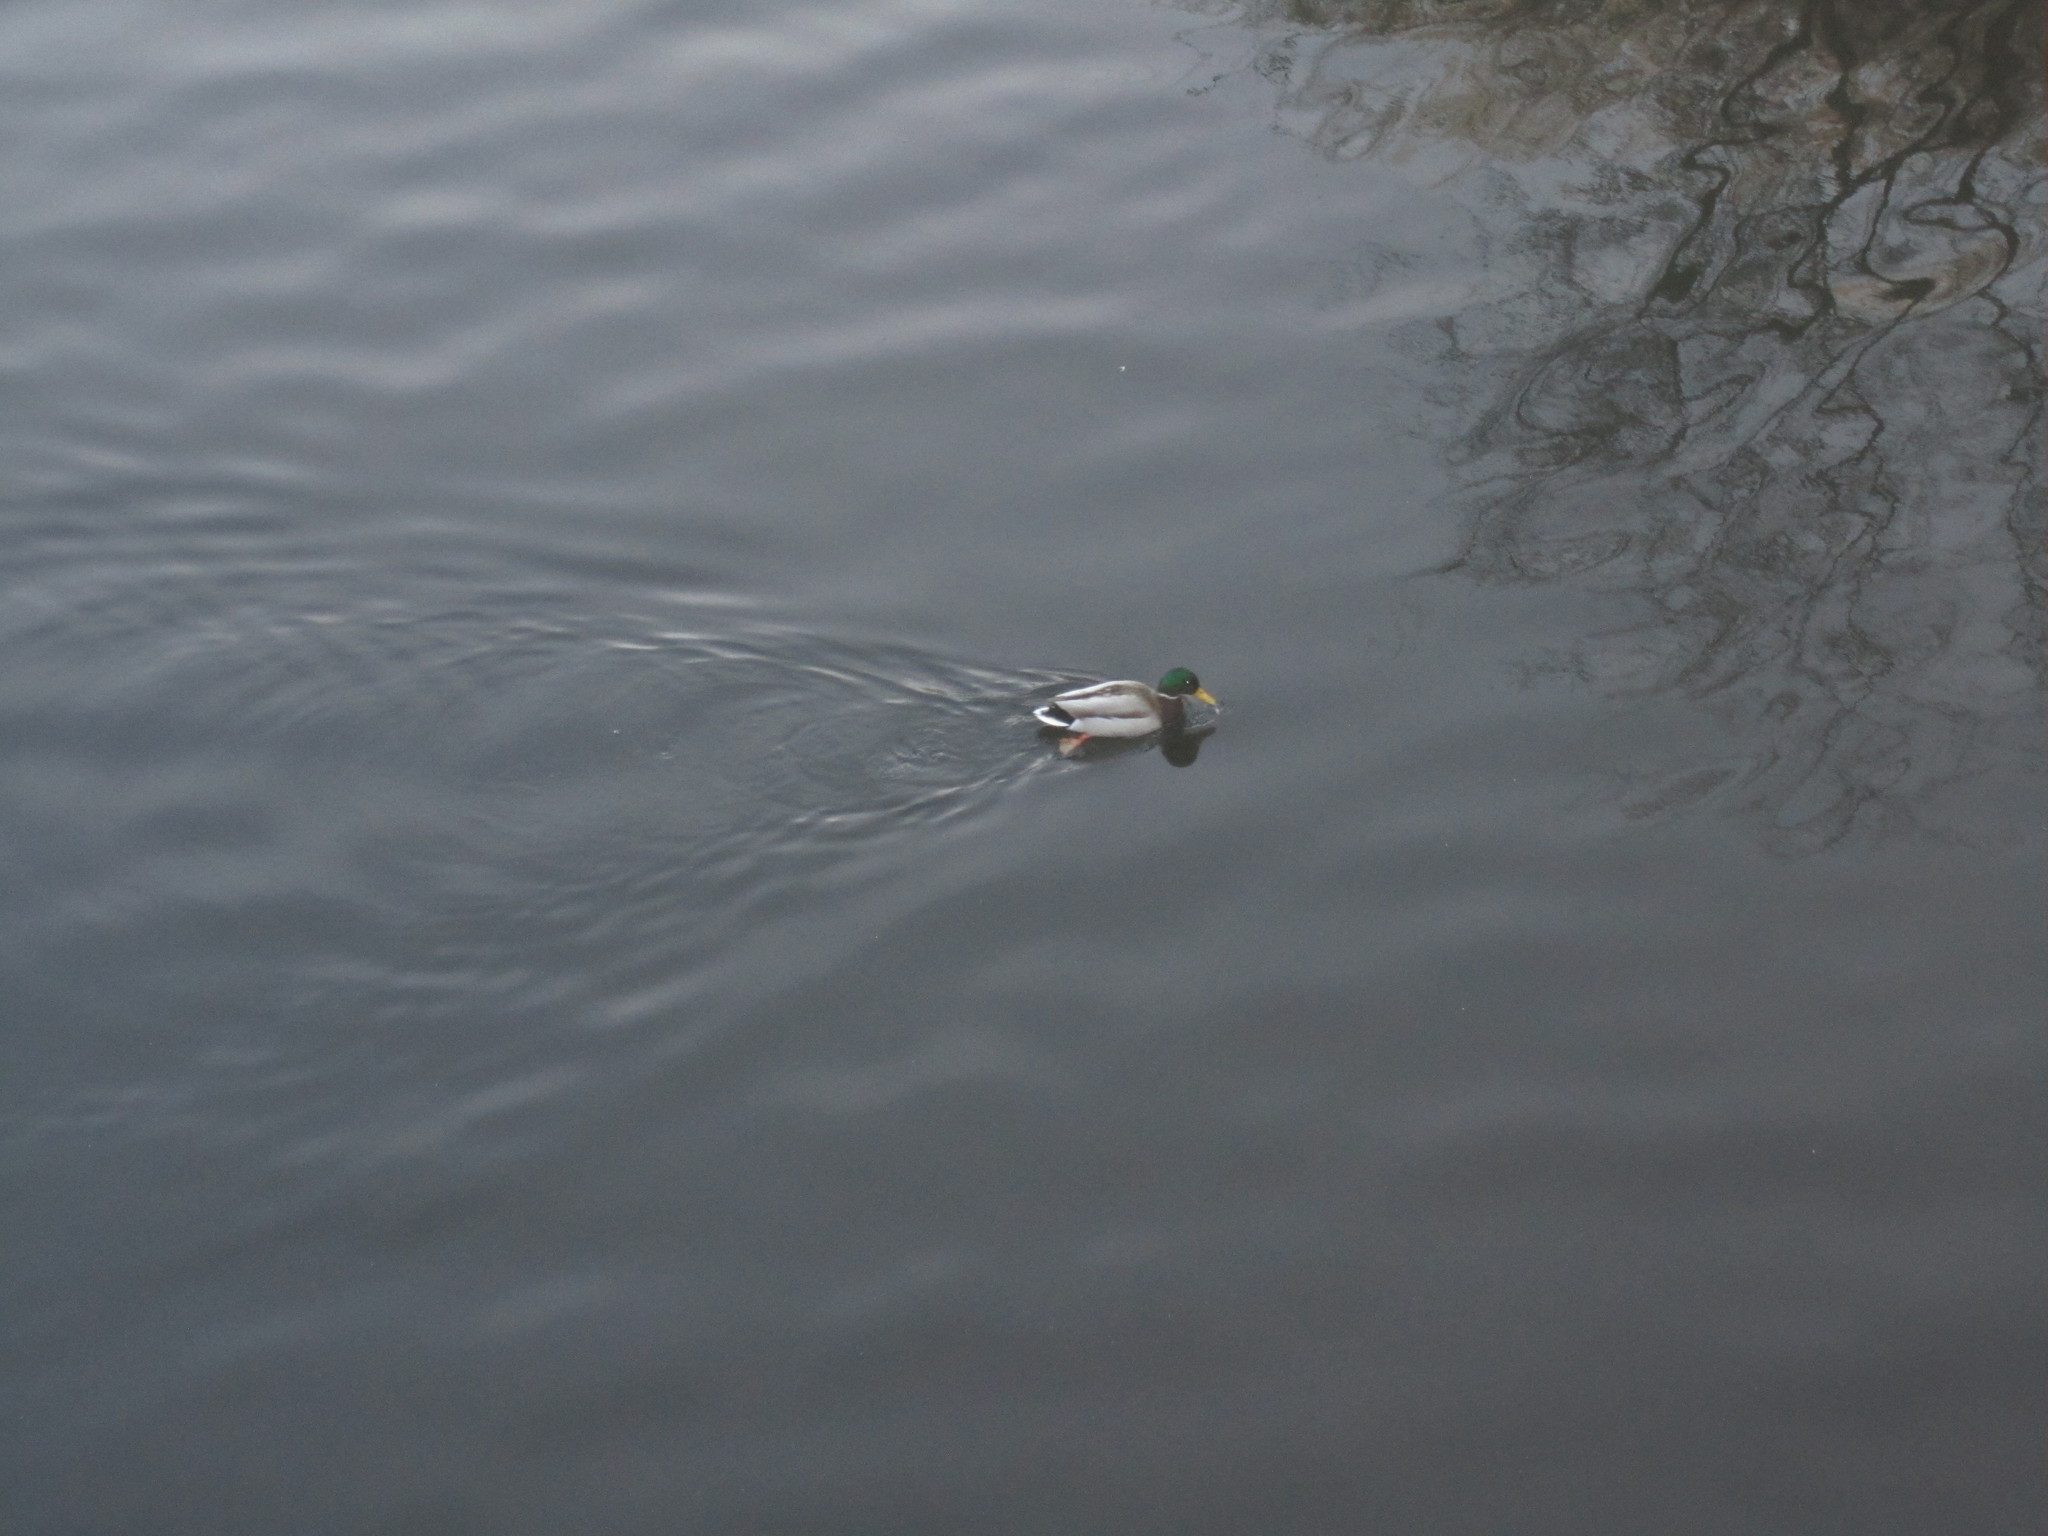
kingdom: Animalia
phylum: Chordata
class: Aves
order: Anseriformes
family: Anatidae
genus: Anas
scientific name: Anas platyrhynchos
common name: Mallard
